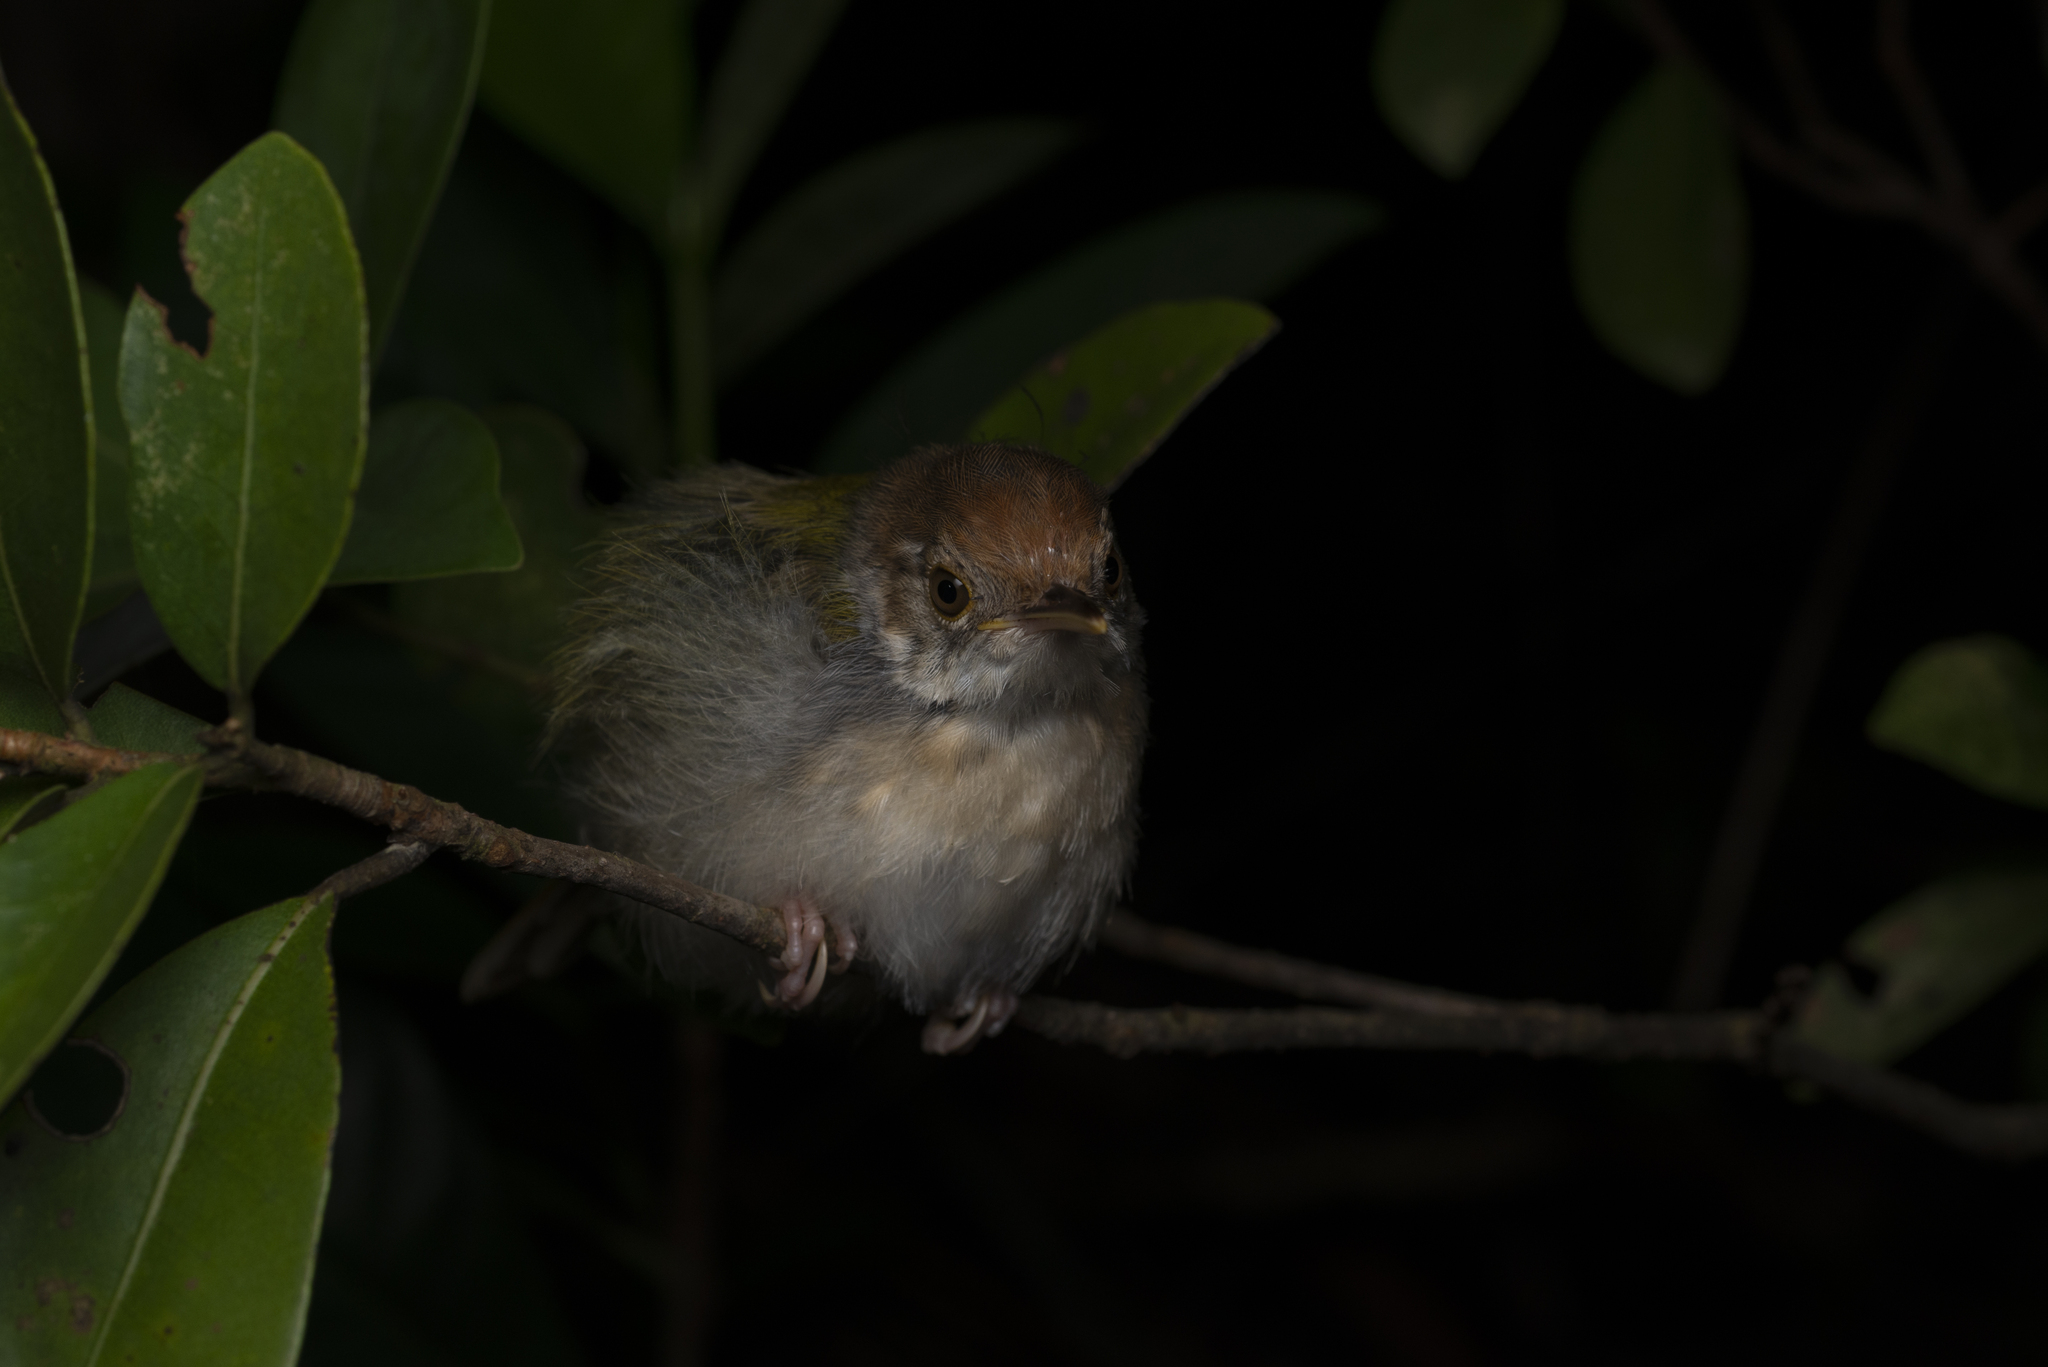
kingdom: Animalia
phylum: Chordata
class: Aves
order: Passeriformes
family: Cisticolidae
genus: Orthotomus
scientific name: Orthotomus sutorius
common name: Common tailorbird
